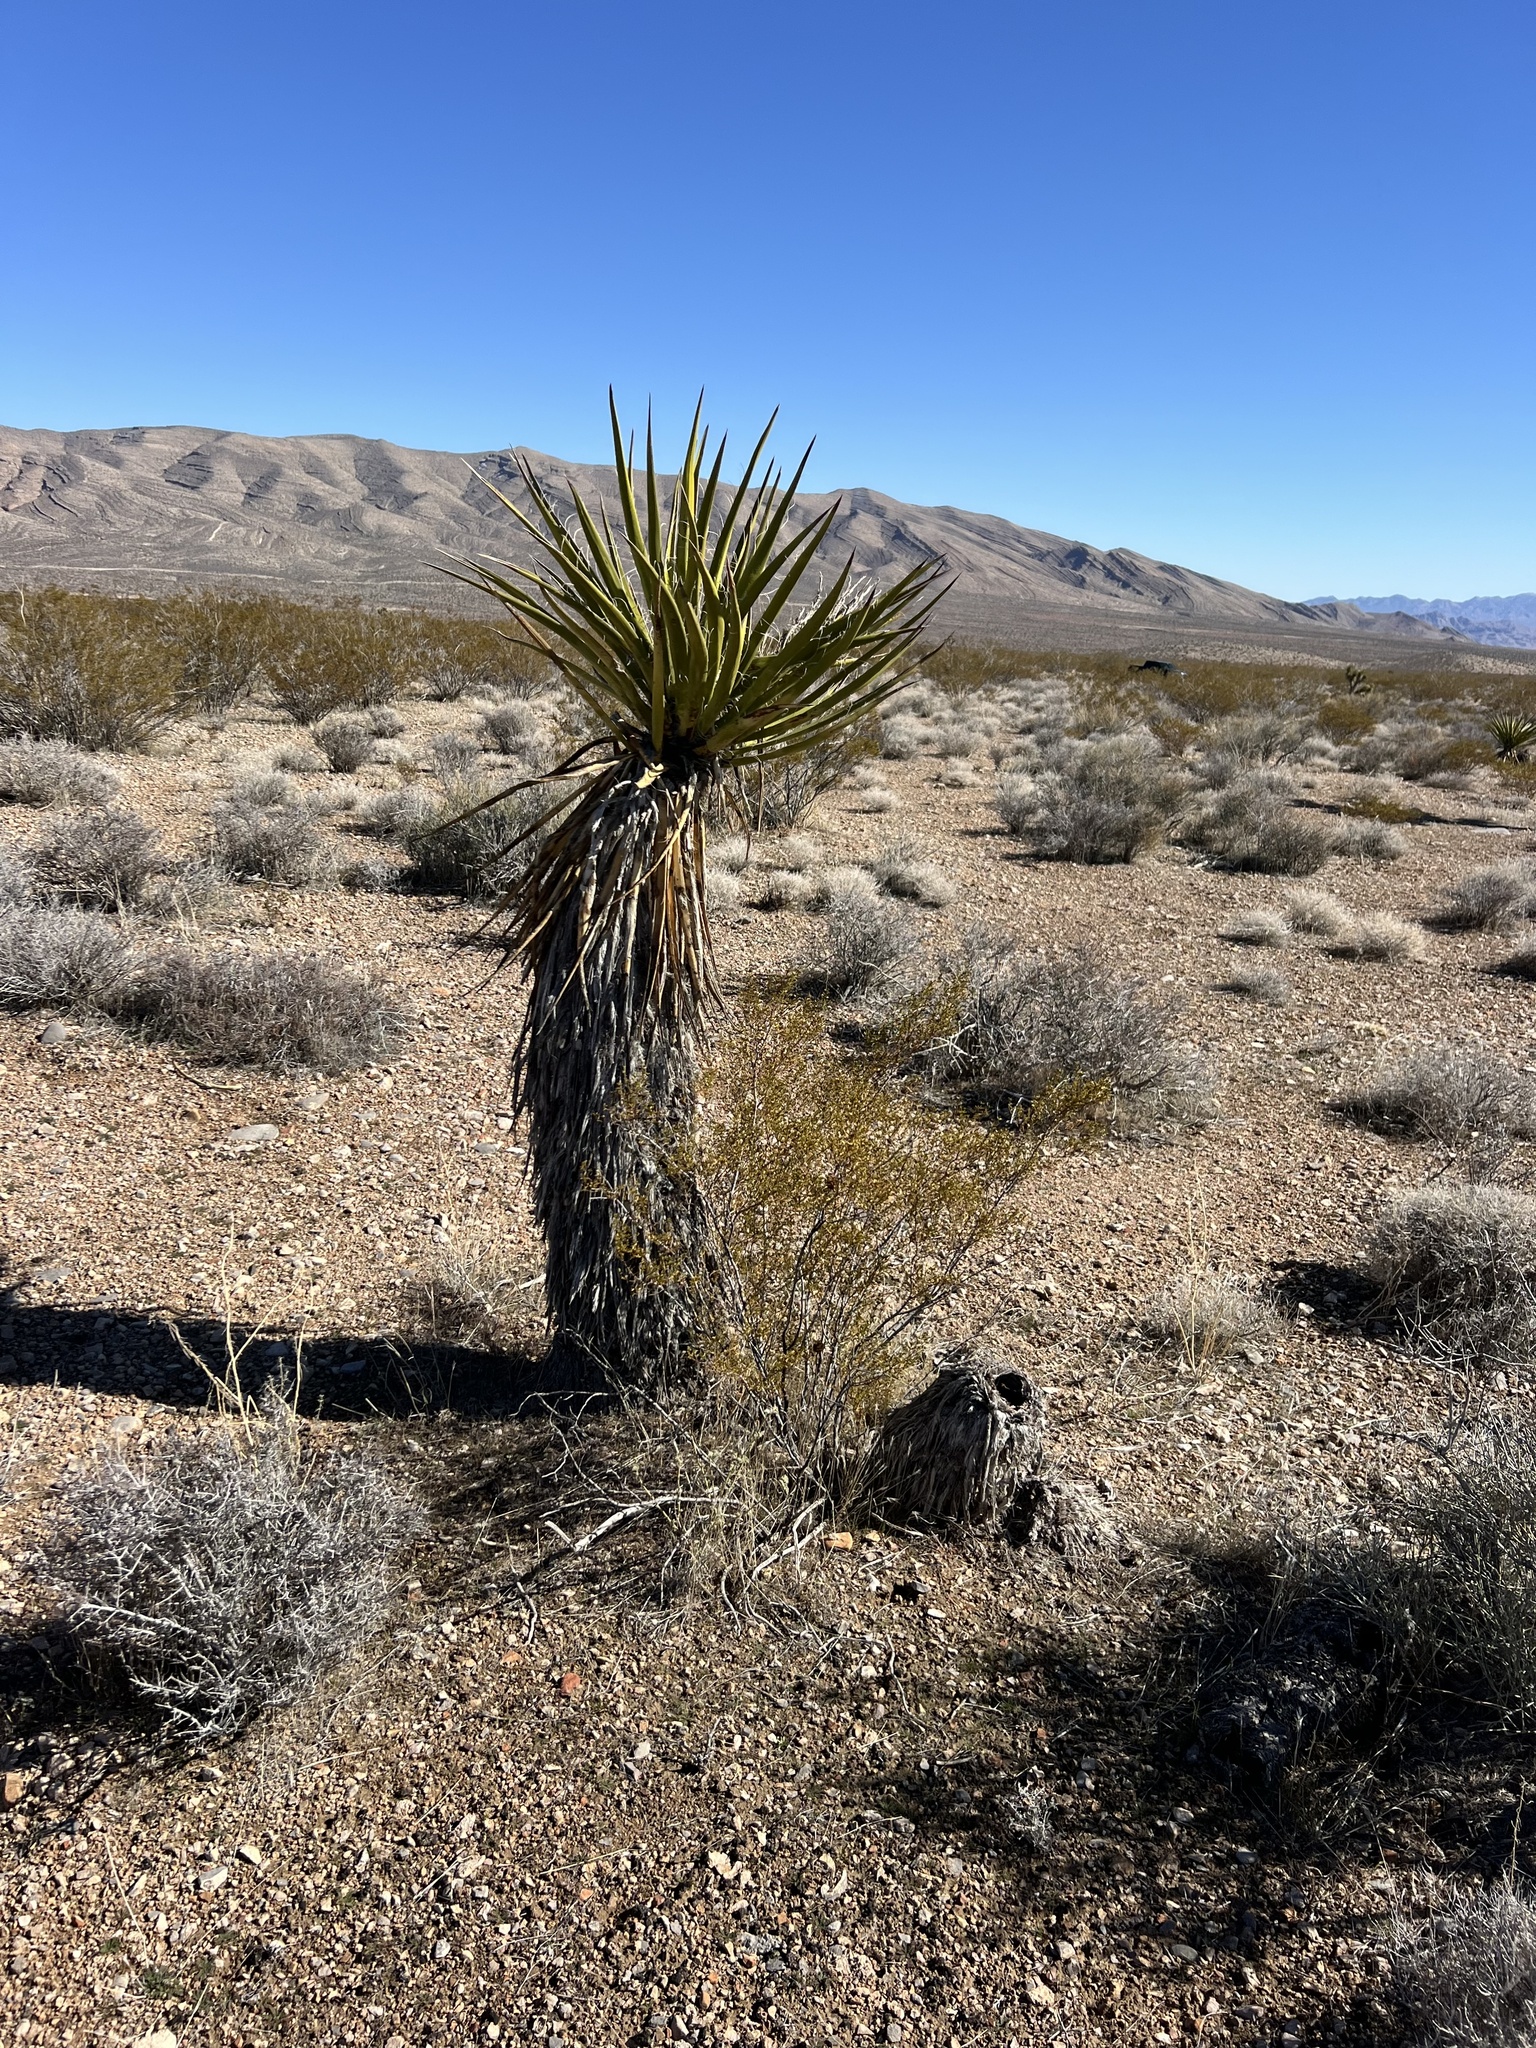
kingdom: Plantae
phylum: Tracheophyta
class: Liliopsida
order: Asparagales
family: Asparagaceae
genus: Yucca
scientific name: Yucca schidigera
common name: Mojave yucca
